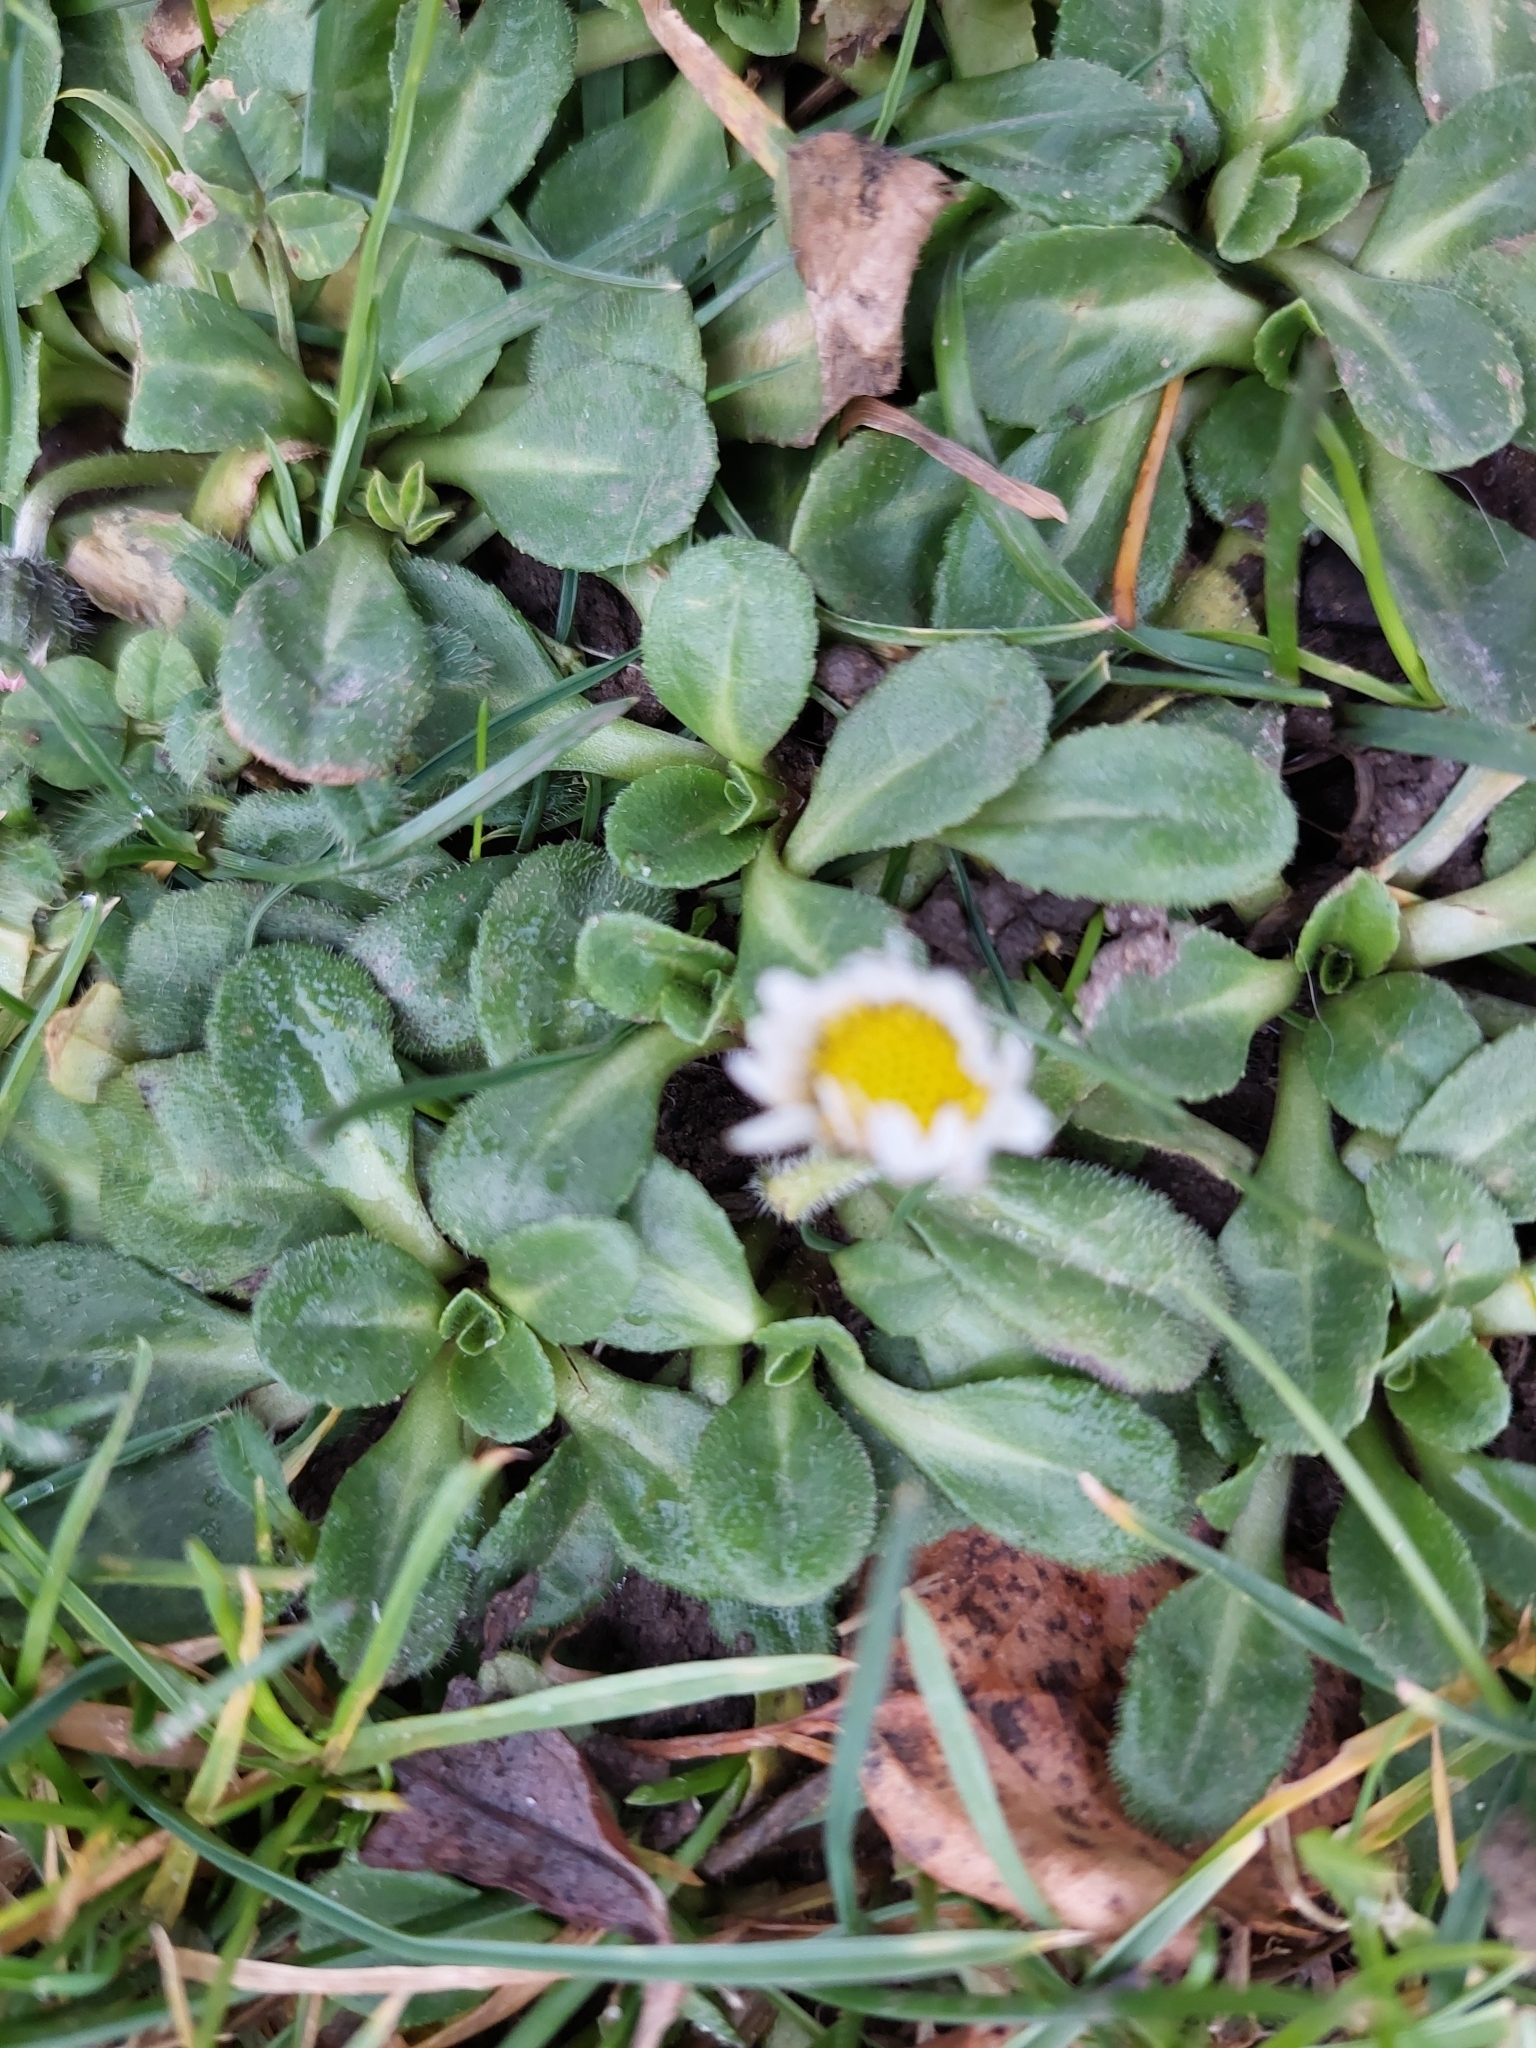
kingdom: Plantae
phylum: Tracheophyta
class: Magnoliopsida
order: Asterales
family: Asteraceae
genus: Bellis
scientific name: Bellis perennis
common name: Lawndaisy
